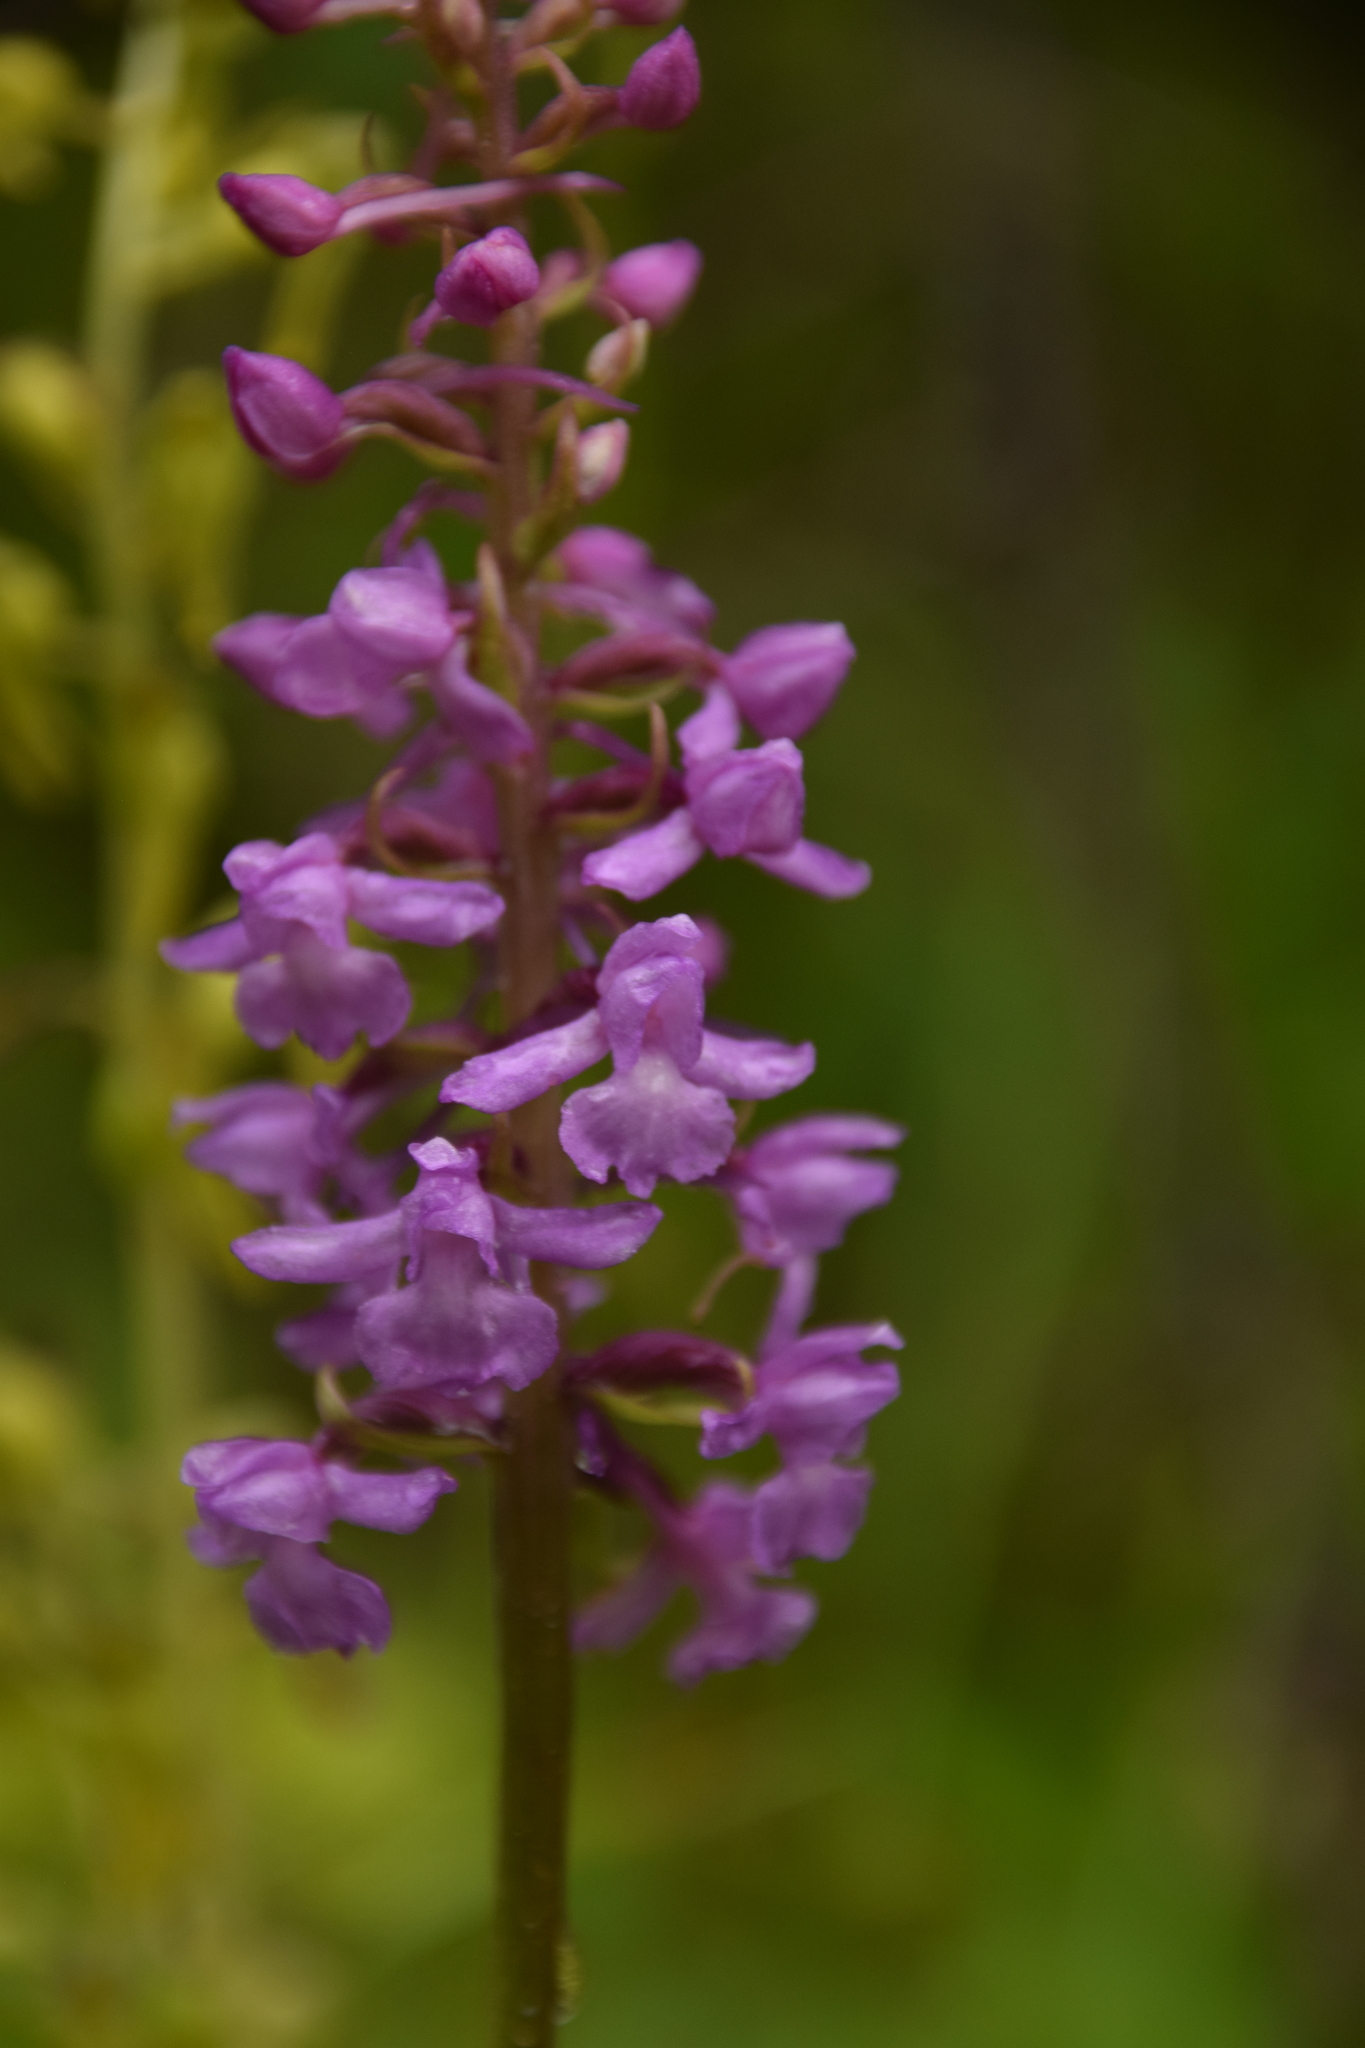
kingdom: Plantae
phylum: Tracheophyta
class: Liliopsida
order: Asparagales
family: Orchidaceae
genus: Gymnadenia
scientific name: Gymnadenia conopsea
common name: Fragrant orchid
